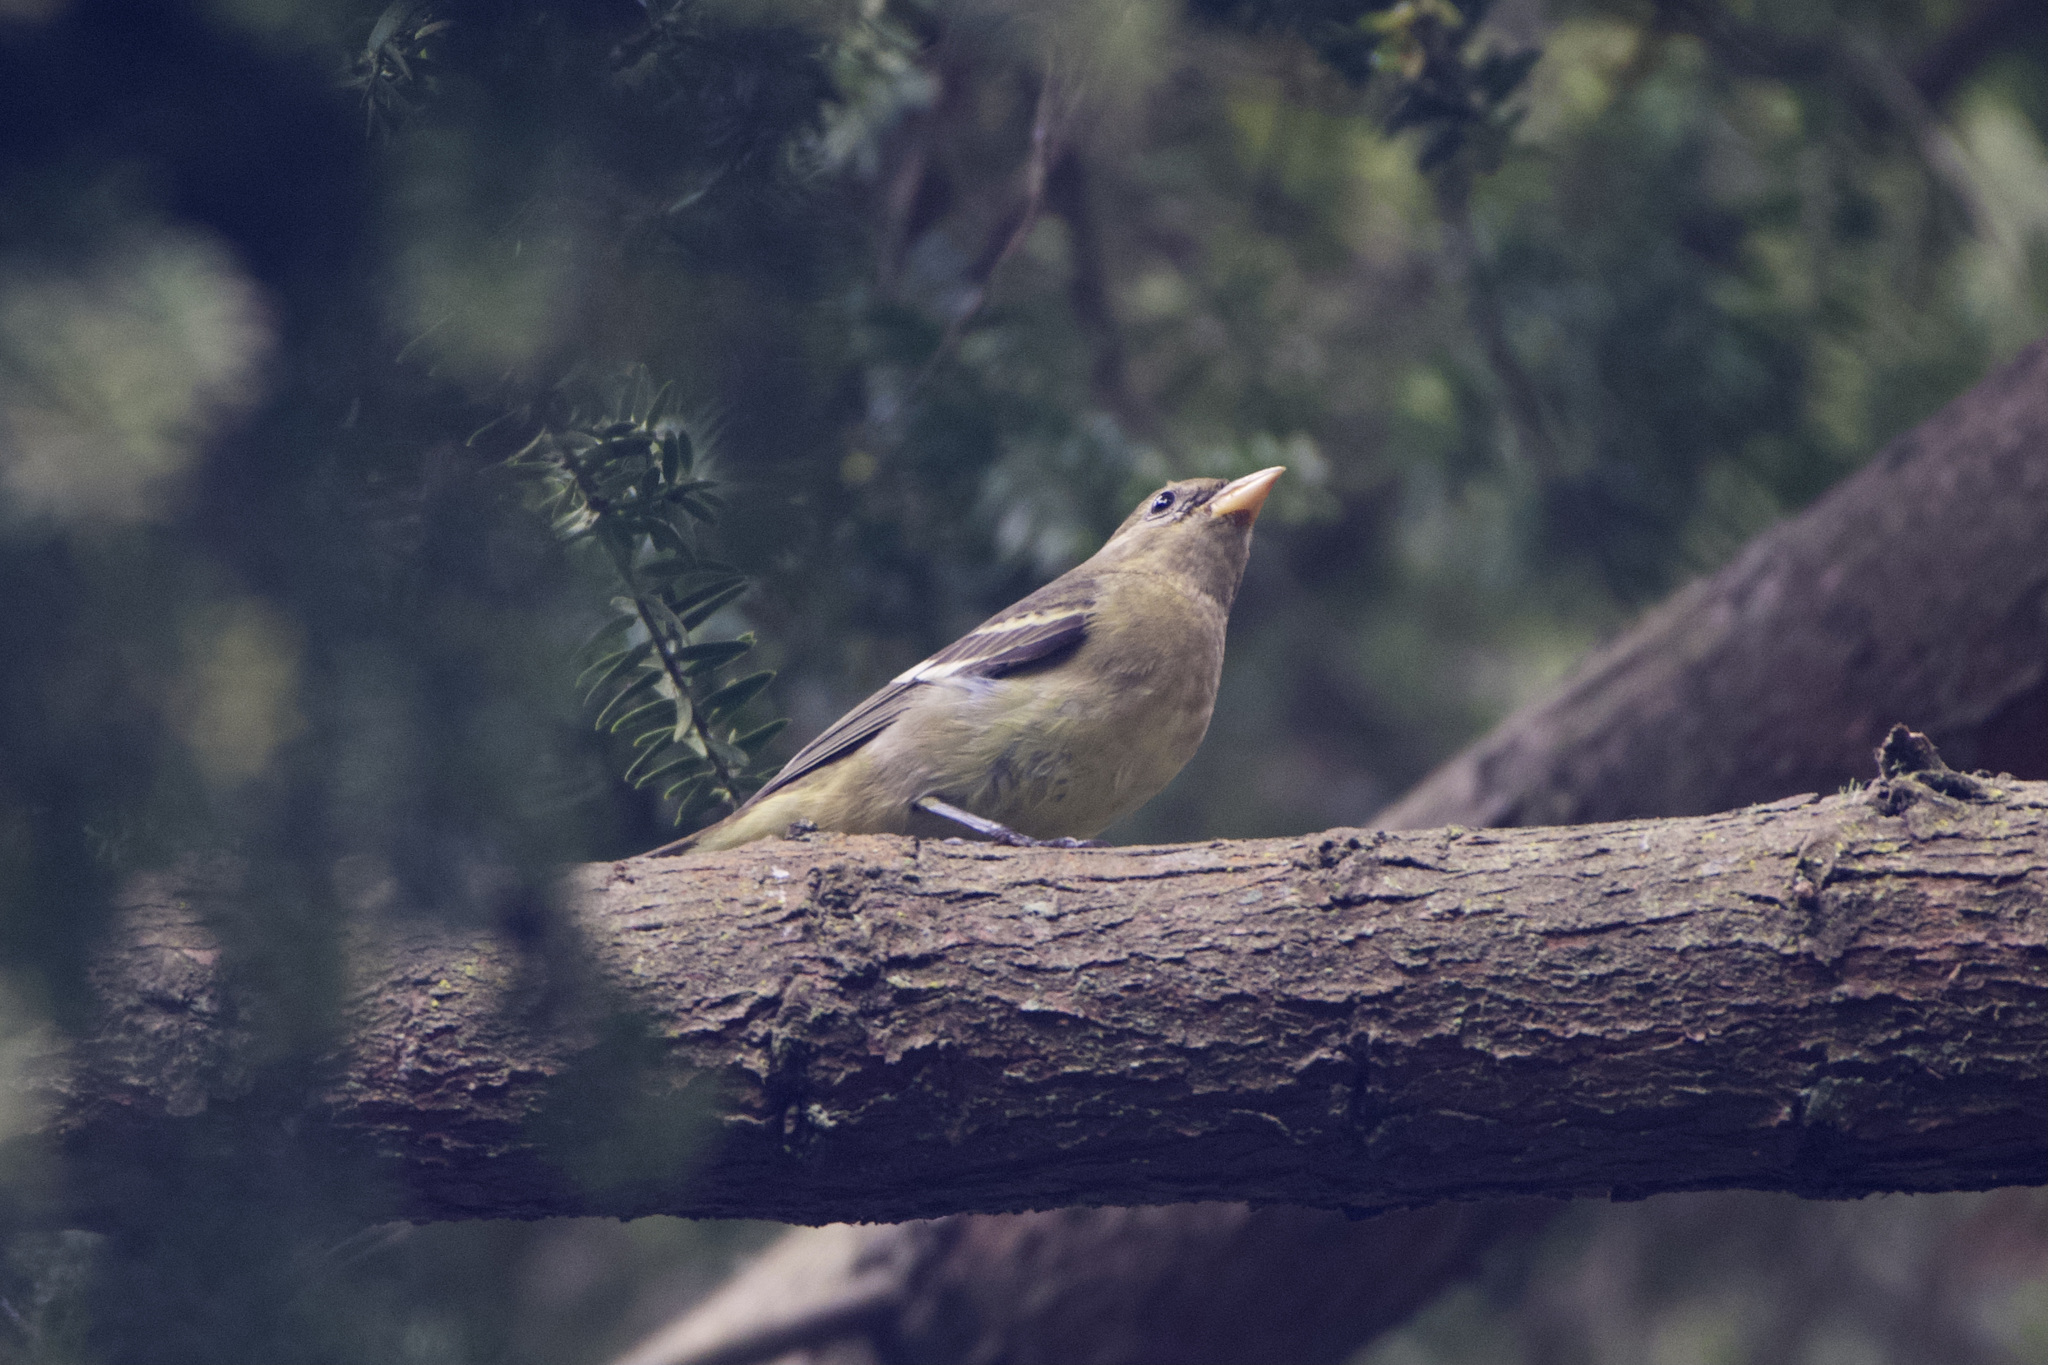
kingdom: Animalia
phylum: Chordata
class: Aves
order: Passeriformes
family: Cardinalidae
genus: Piranga
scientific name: Piranga ludoviciana
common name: Western tanager
